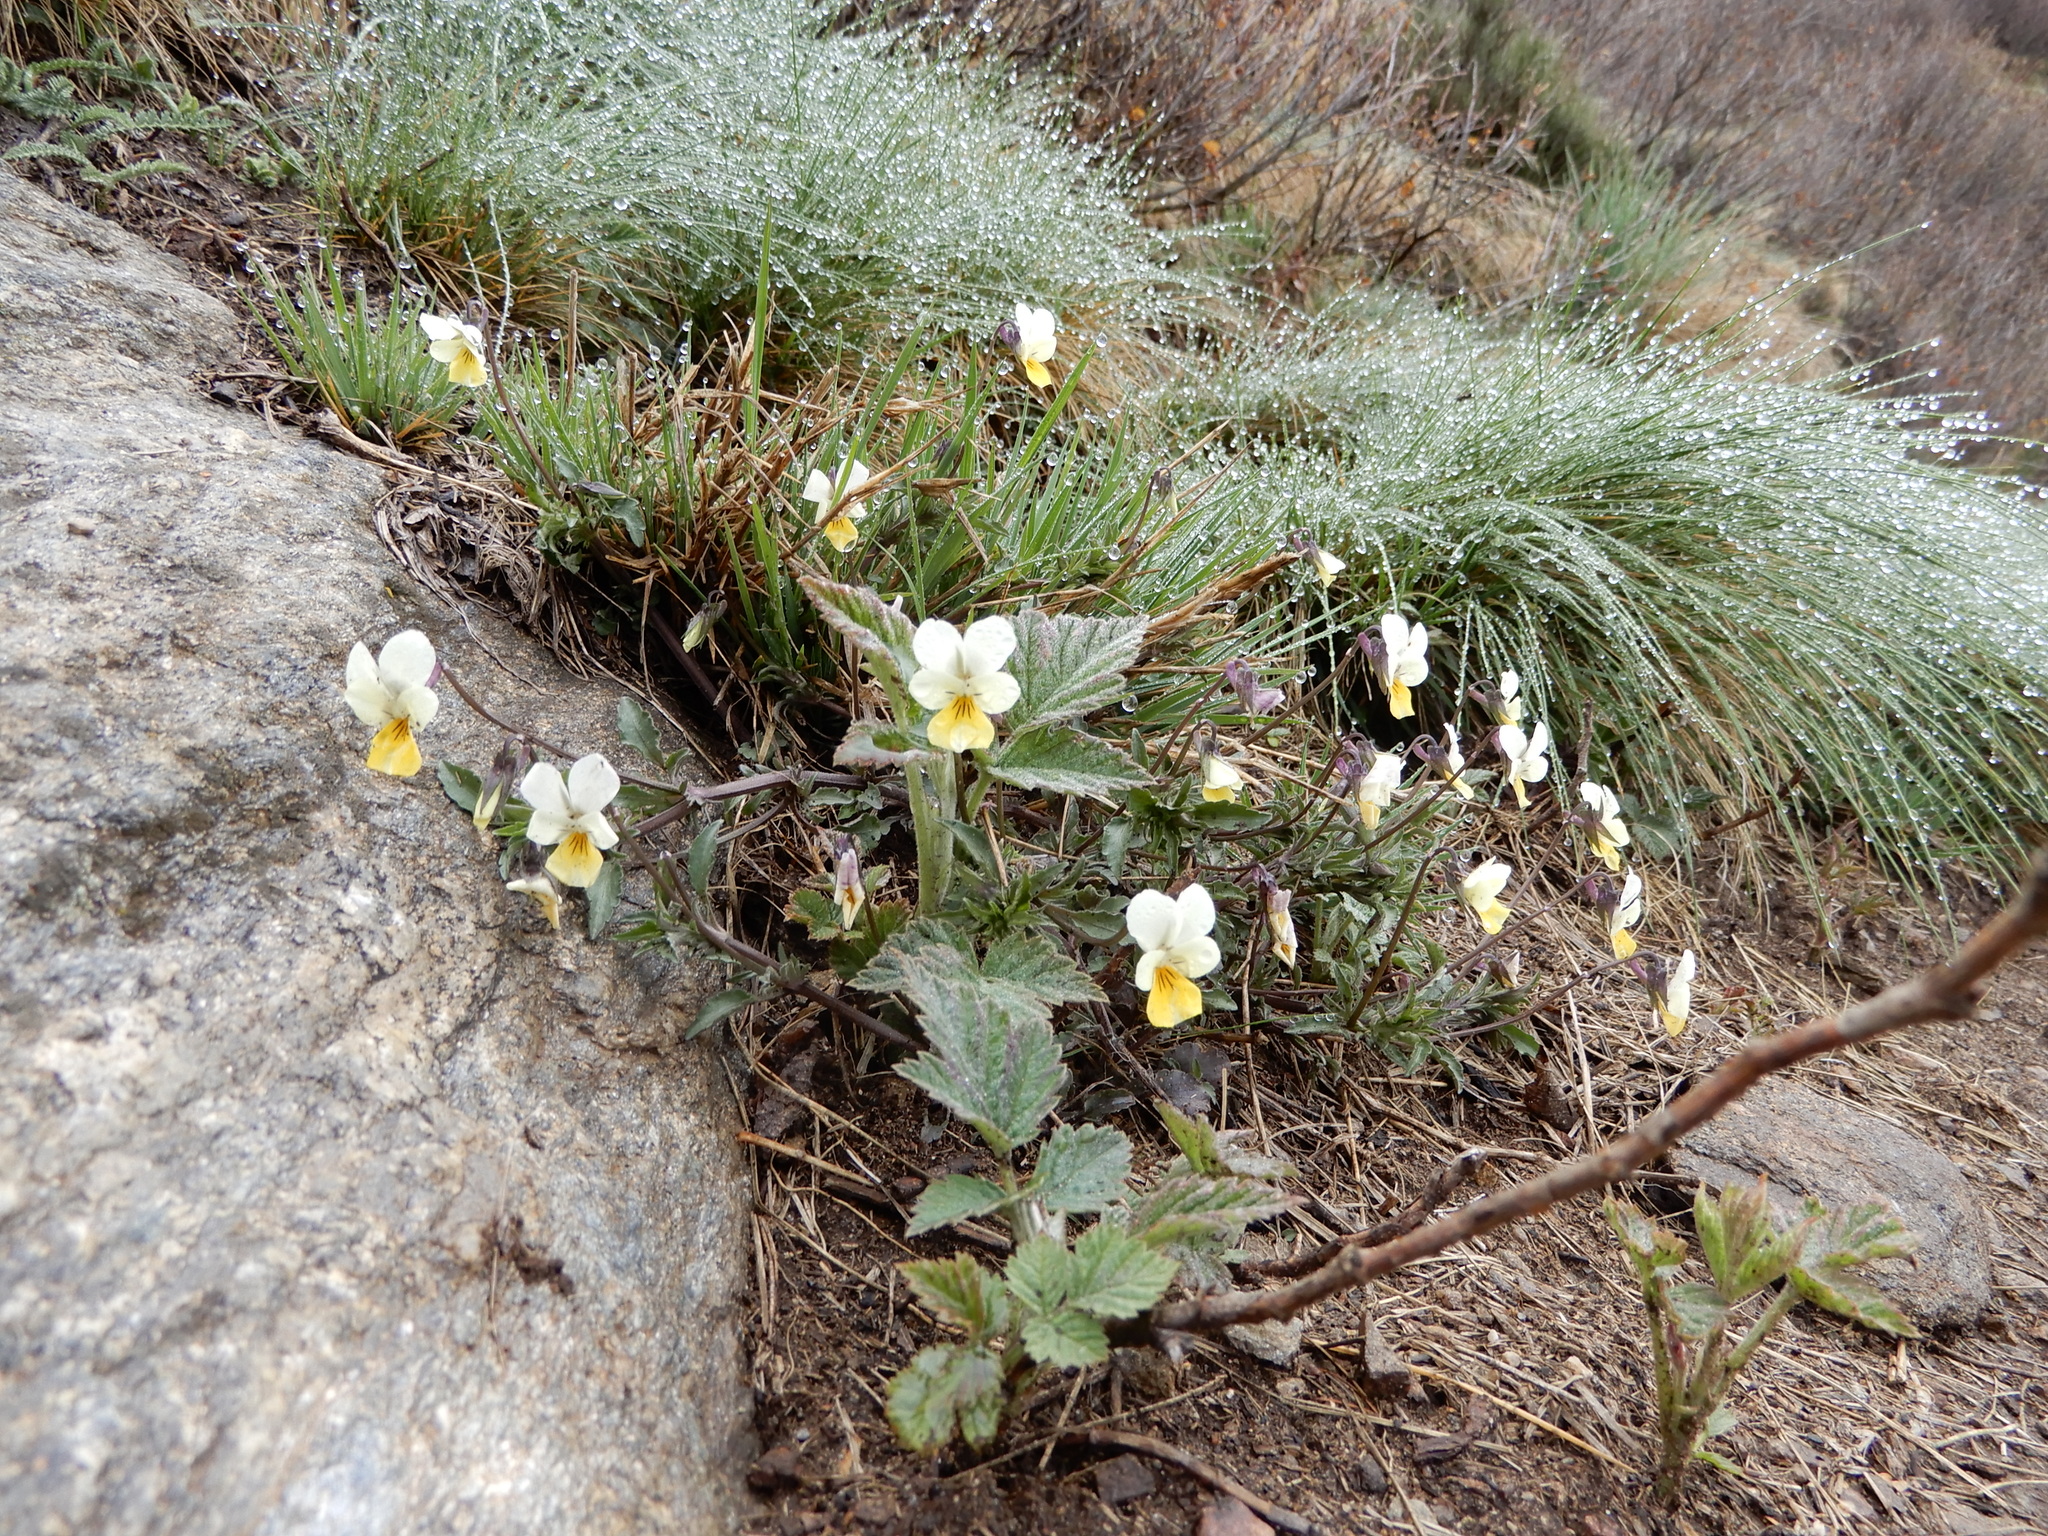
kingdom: Plantae
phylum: Tracheophyta
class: Magnoliopsida
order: Malpighiales
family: Violaceae
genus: Viola
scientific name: Viola tricolor
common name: Pansy
